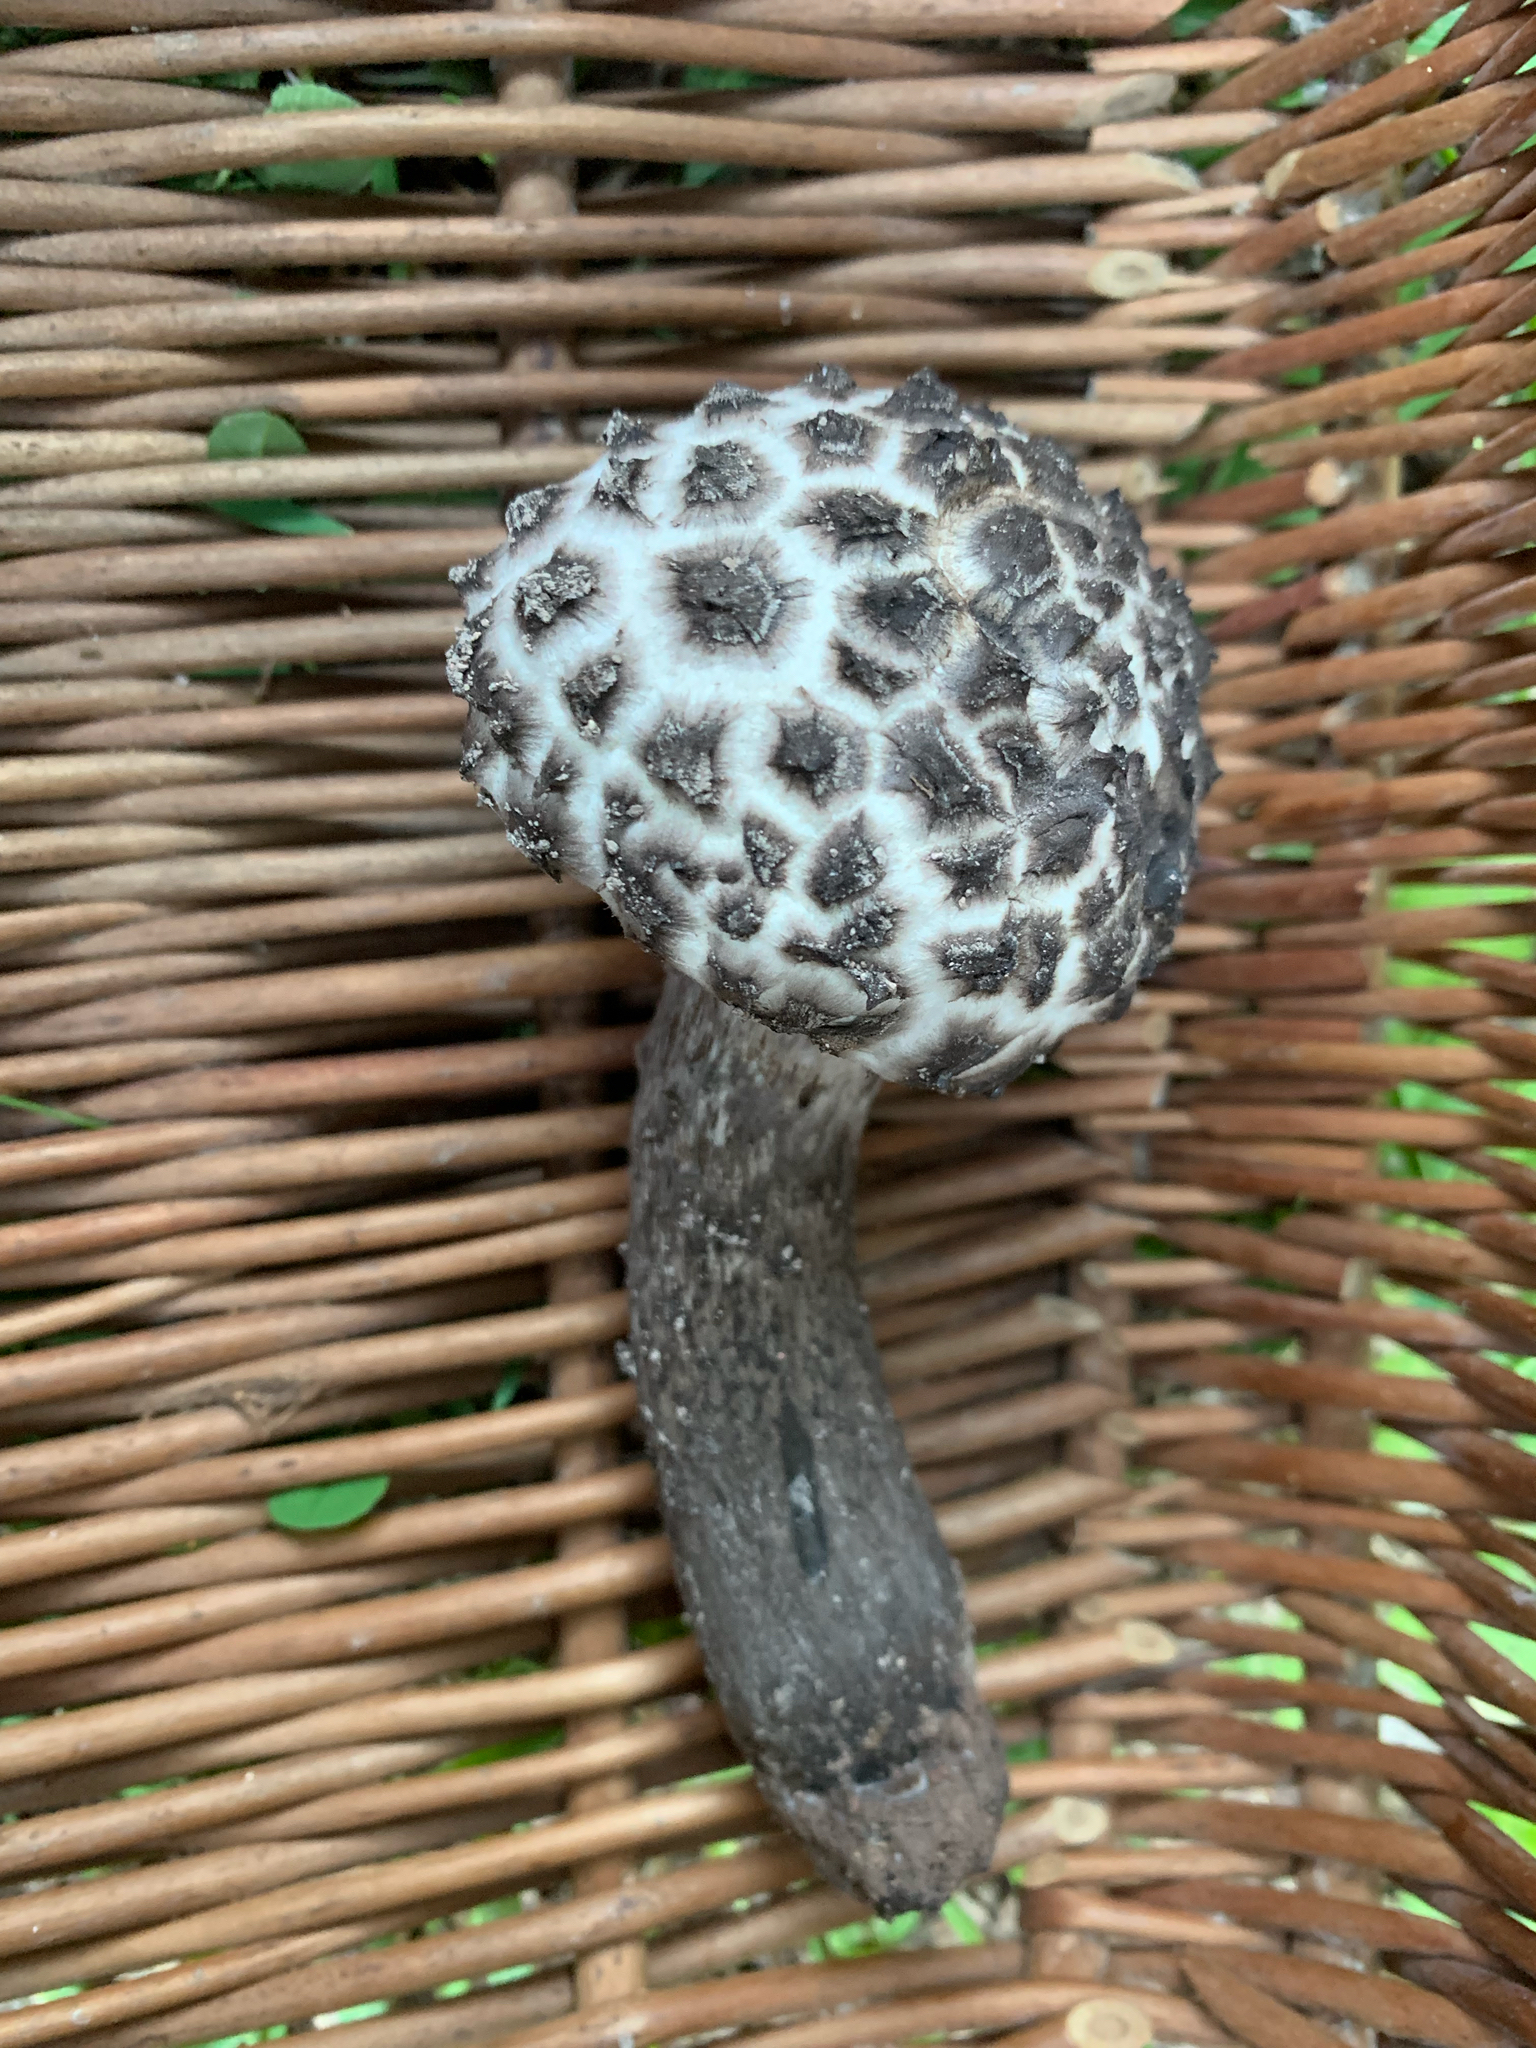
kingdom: Fungi
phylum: Basidiomycota
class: Agaricomycetes
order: Boletales
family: Boletaceae
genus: Strobilomyces
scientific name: Strobilomyces strobilaceus
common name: Old man of the woods
